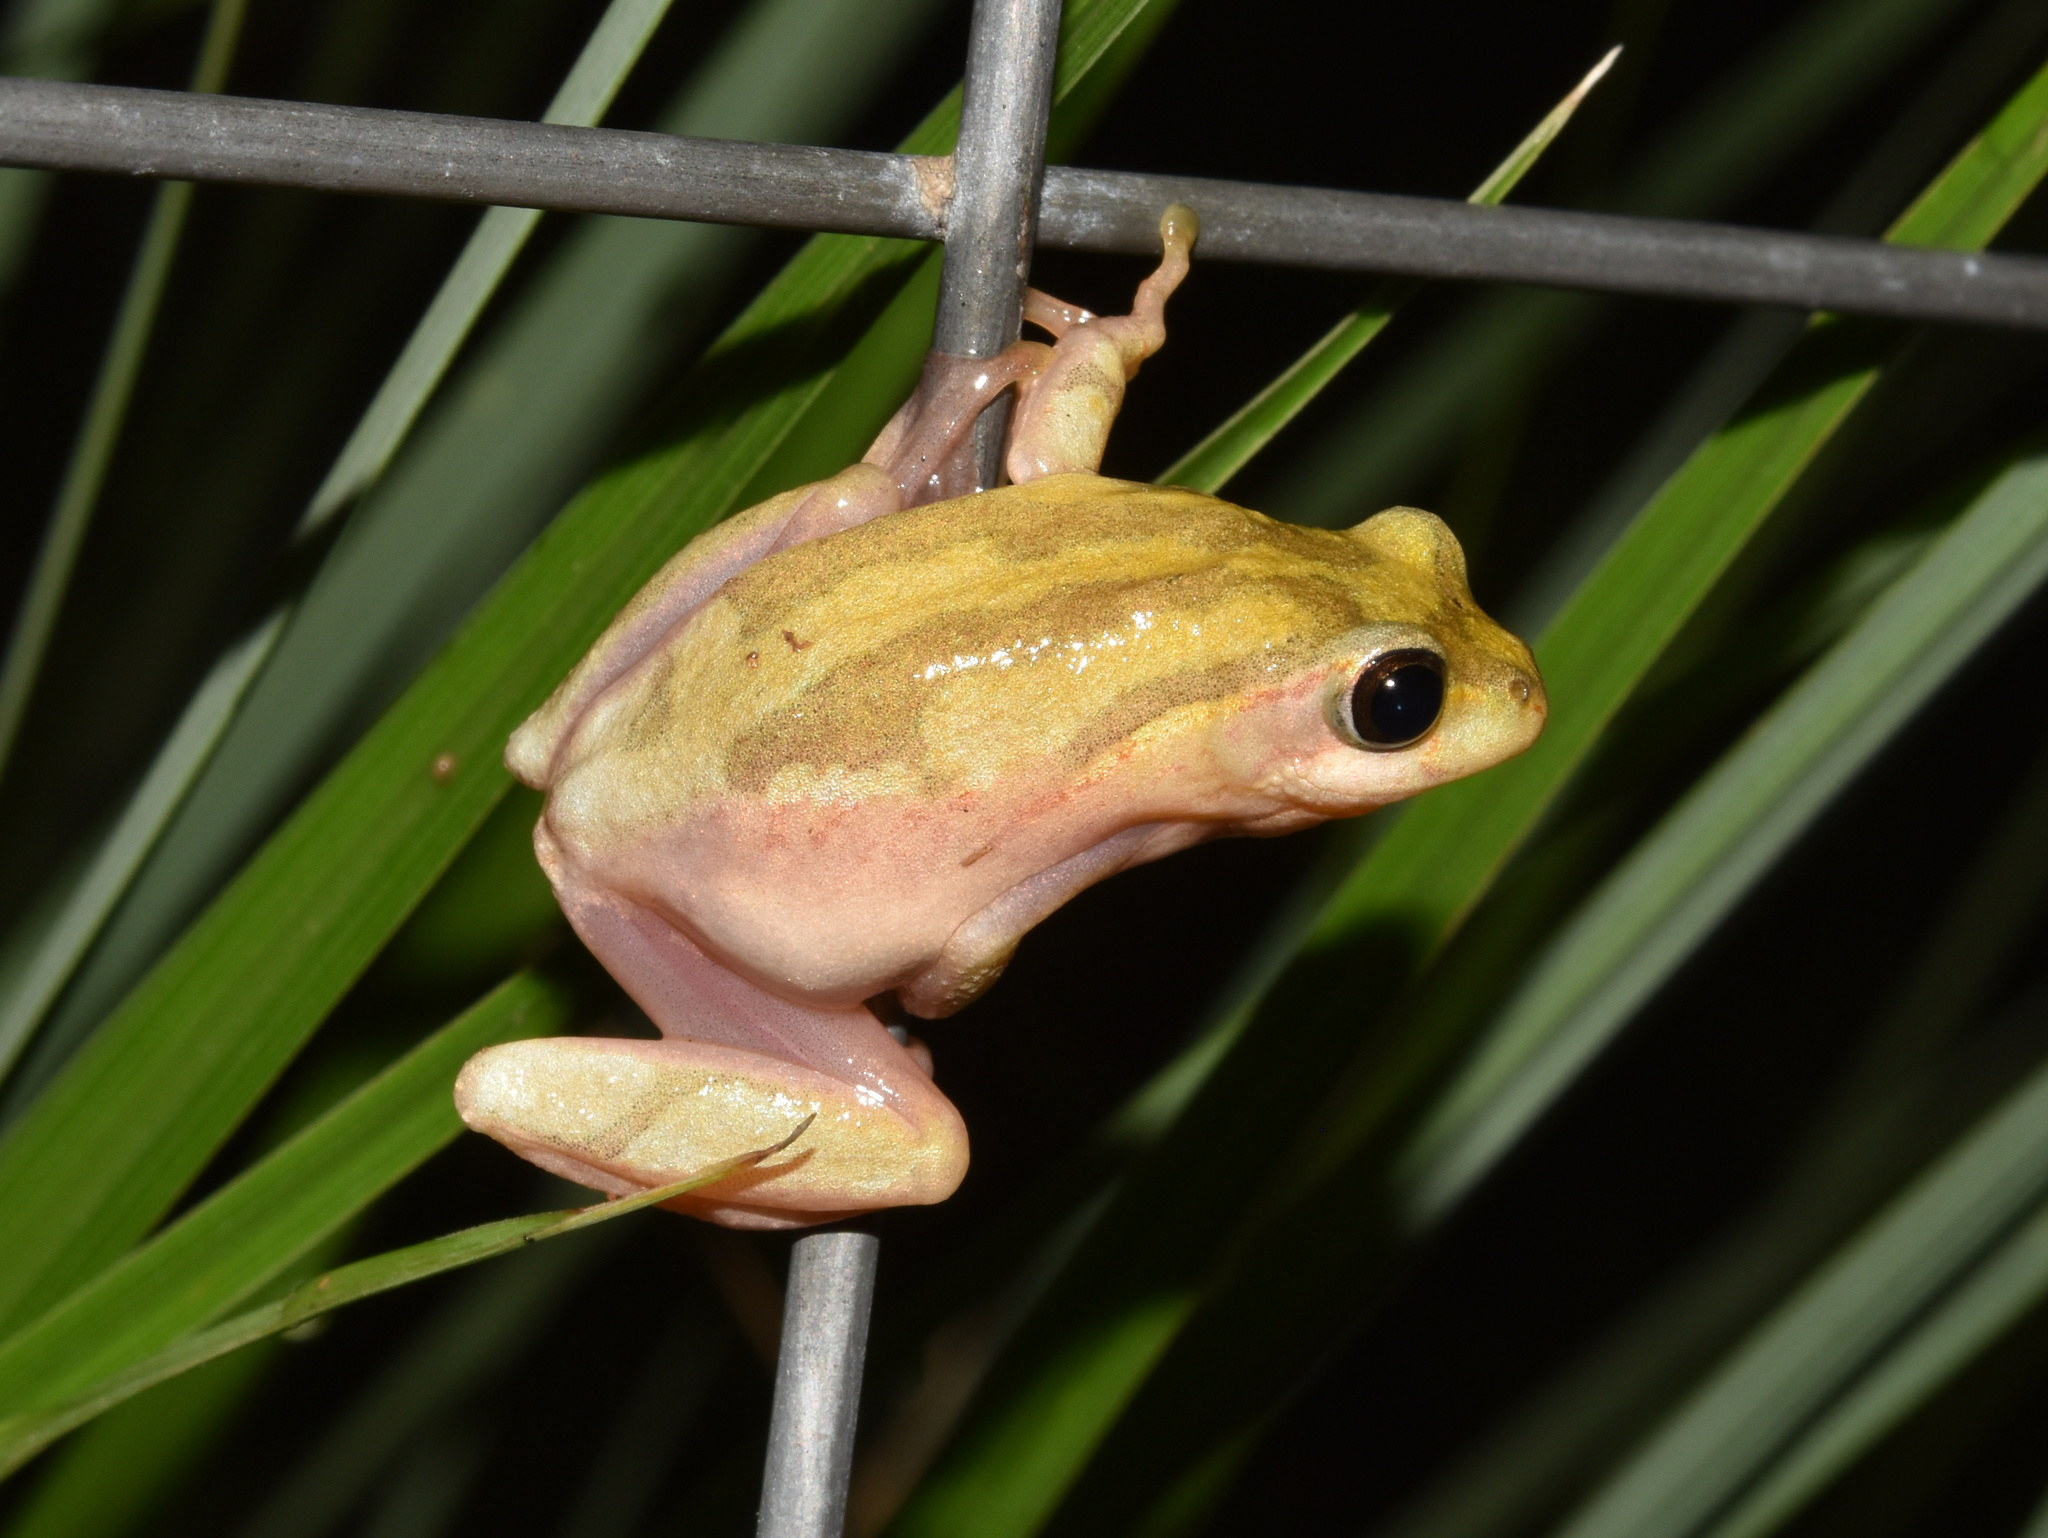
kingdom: Animalia
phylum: Chordata
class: Amphibia
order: Anura
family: Hyperoliidae
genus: Hyperolius
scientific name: Hyperolius marmoratus
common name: Painted reed frog
